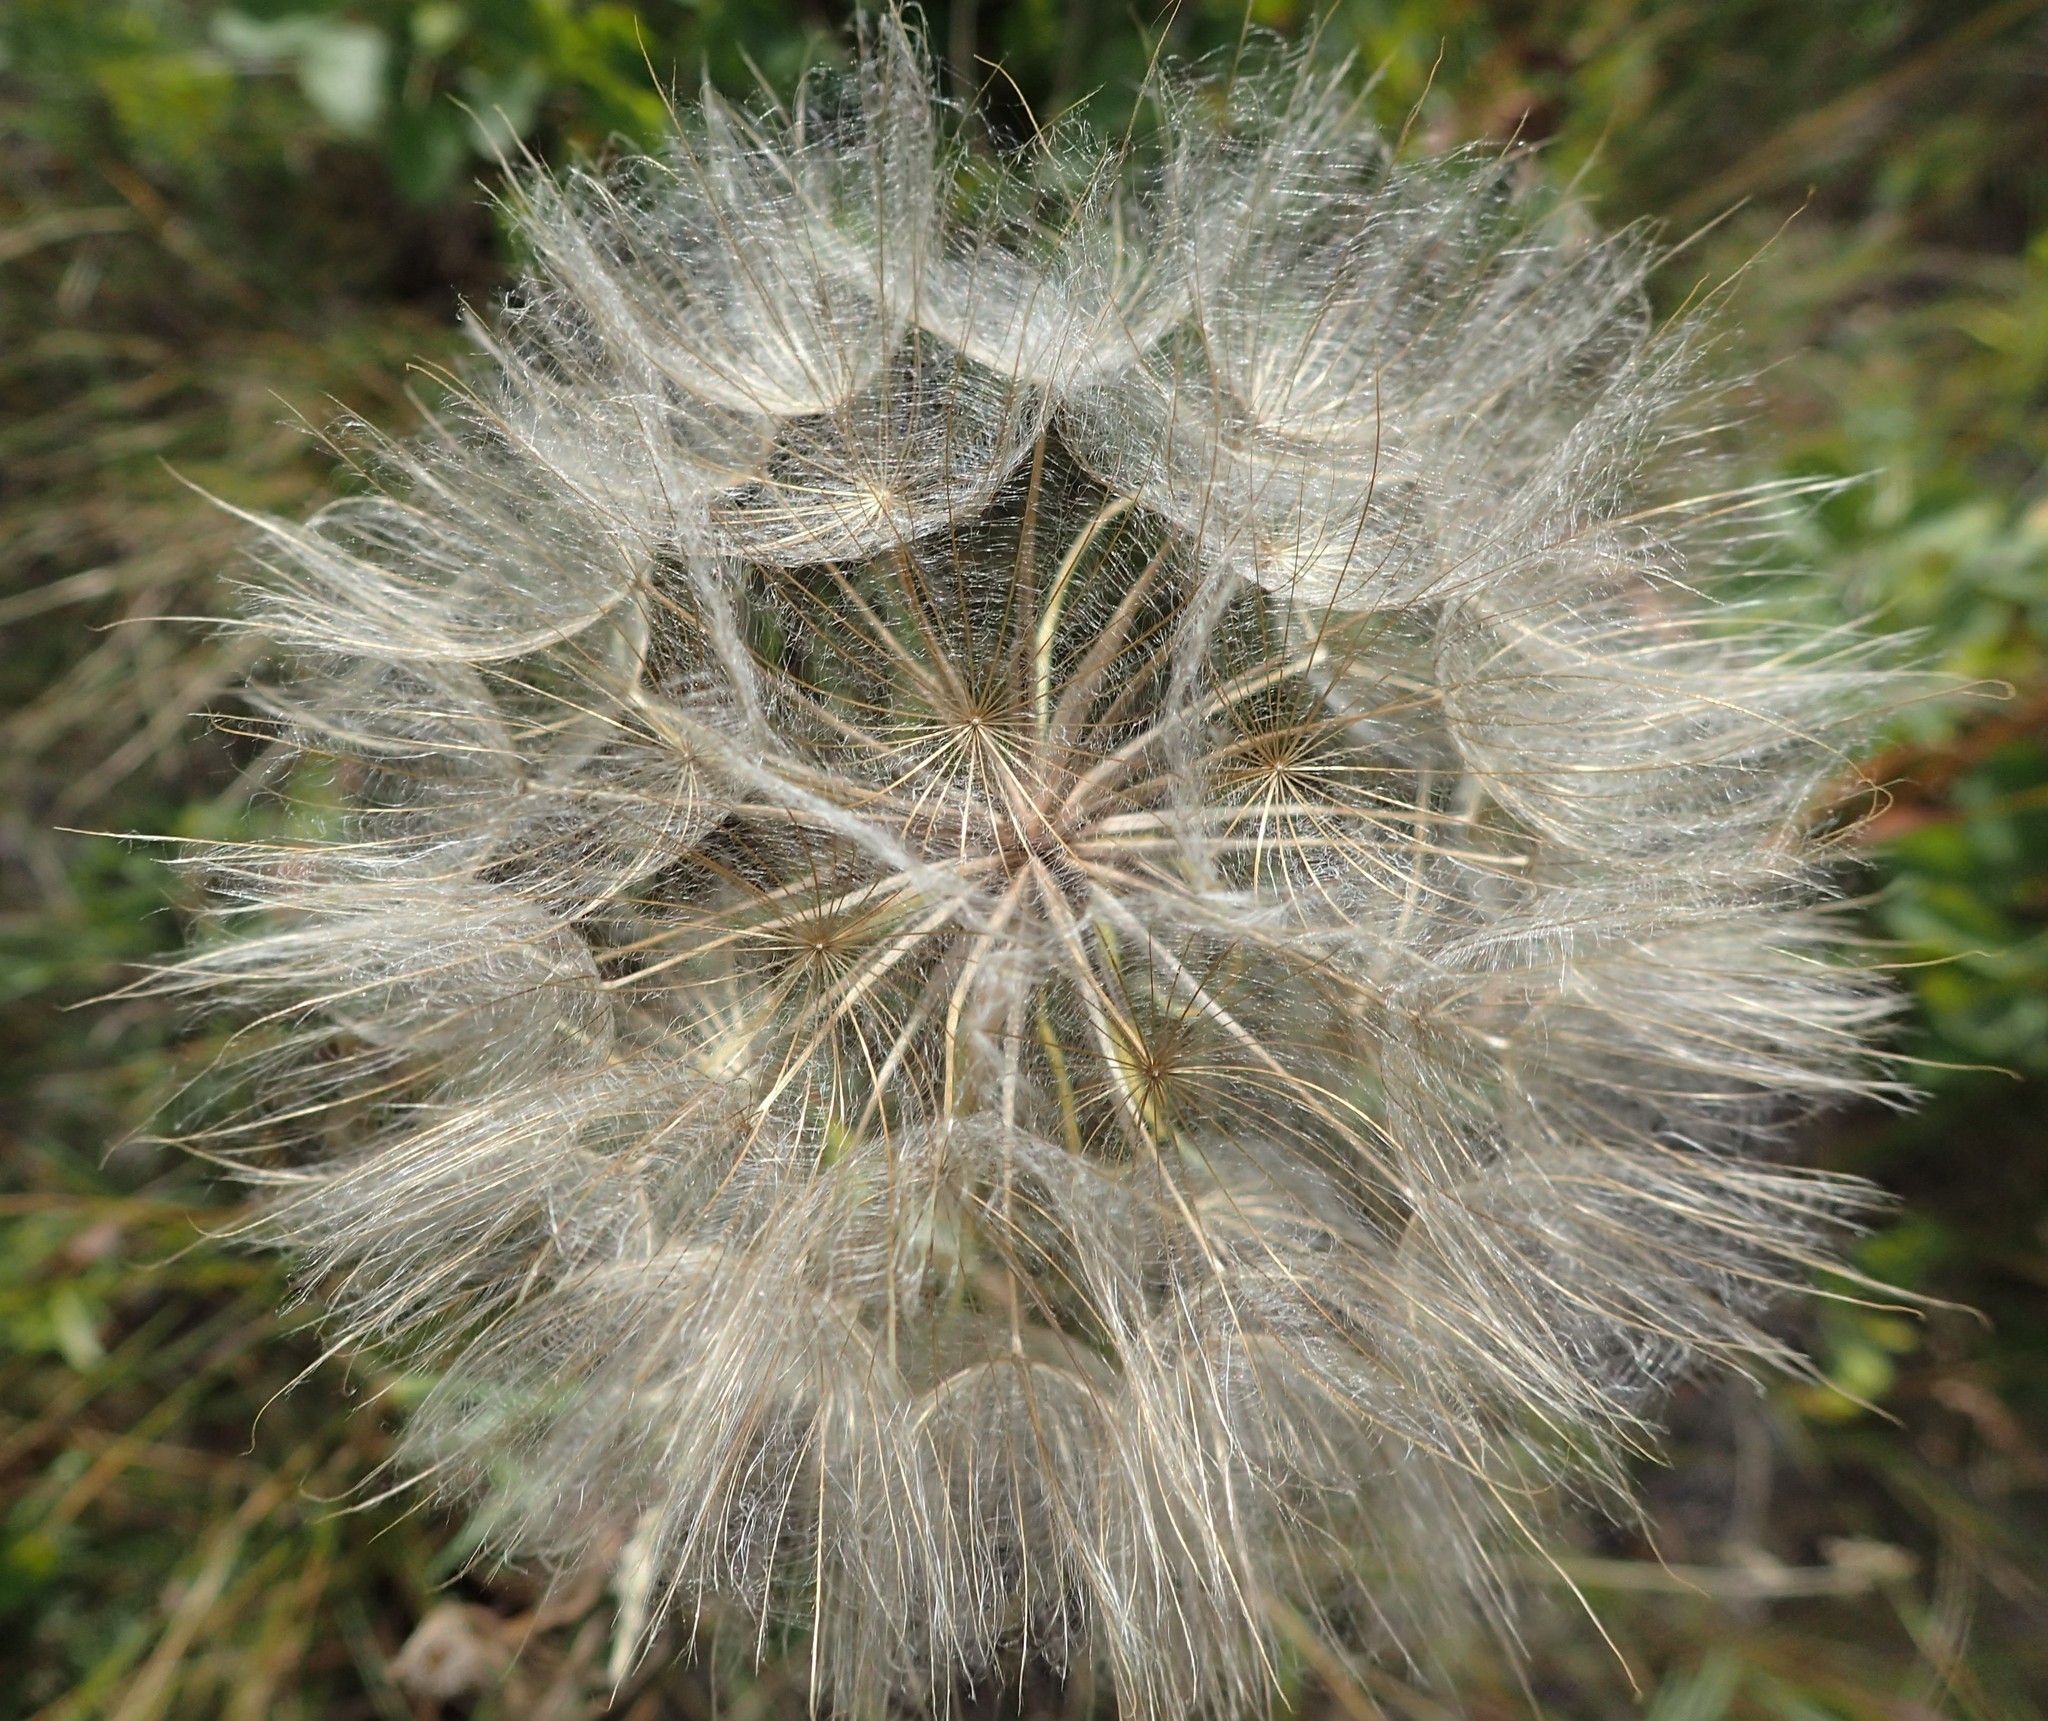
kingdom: Plantae
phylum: Tracheophyta
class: Magnoliopsida
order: Asterales
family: Asteraceae
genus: Tragopogon
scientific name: Tragopogon dubius
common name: Yellow salsify
